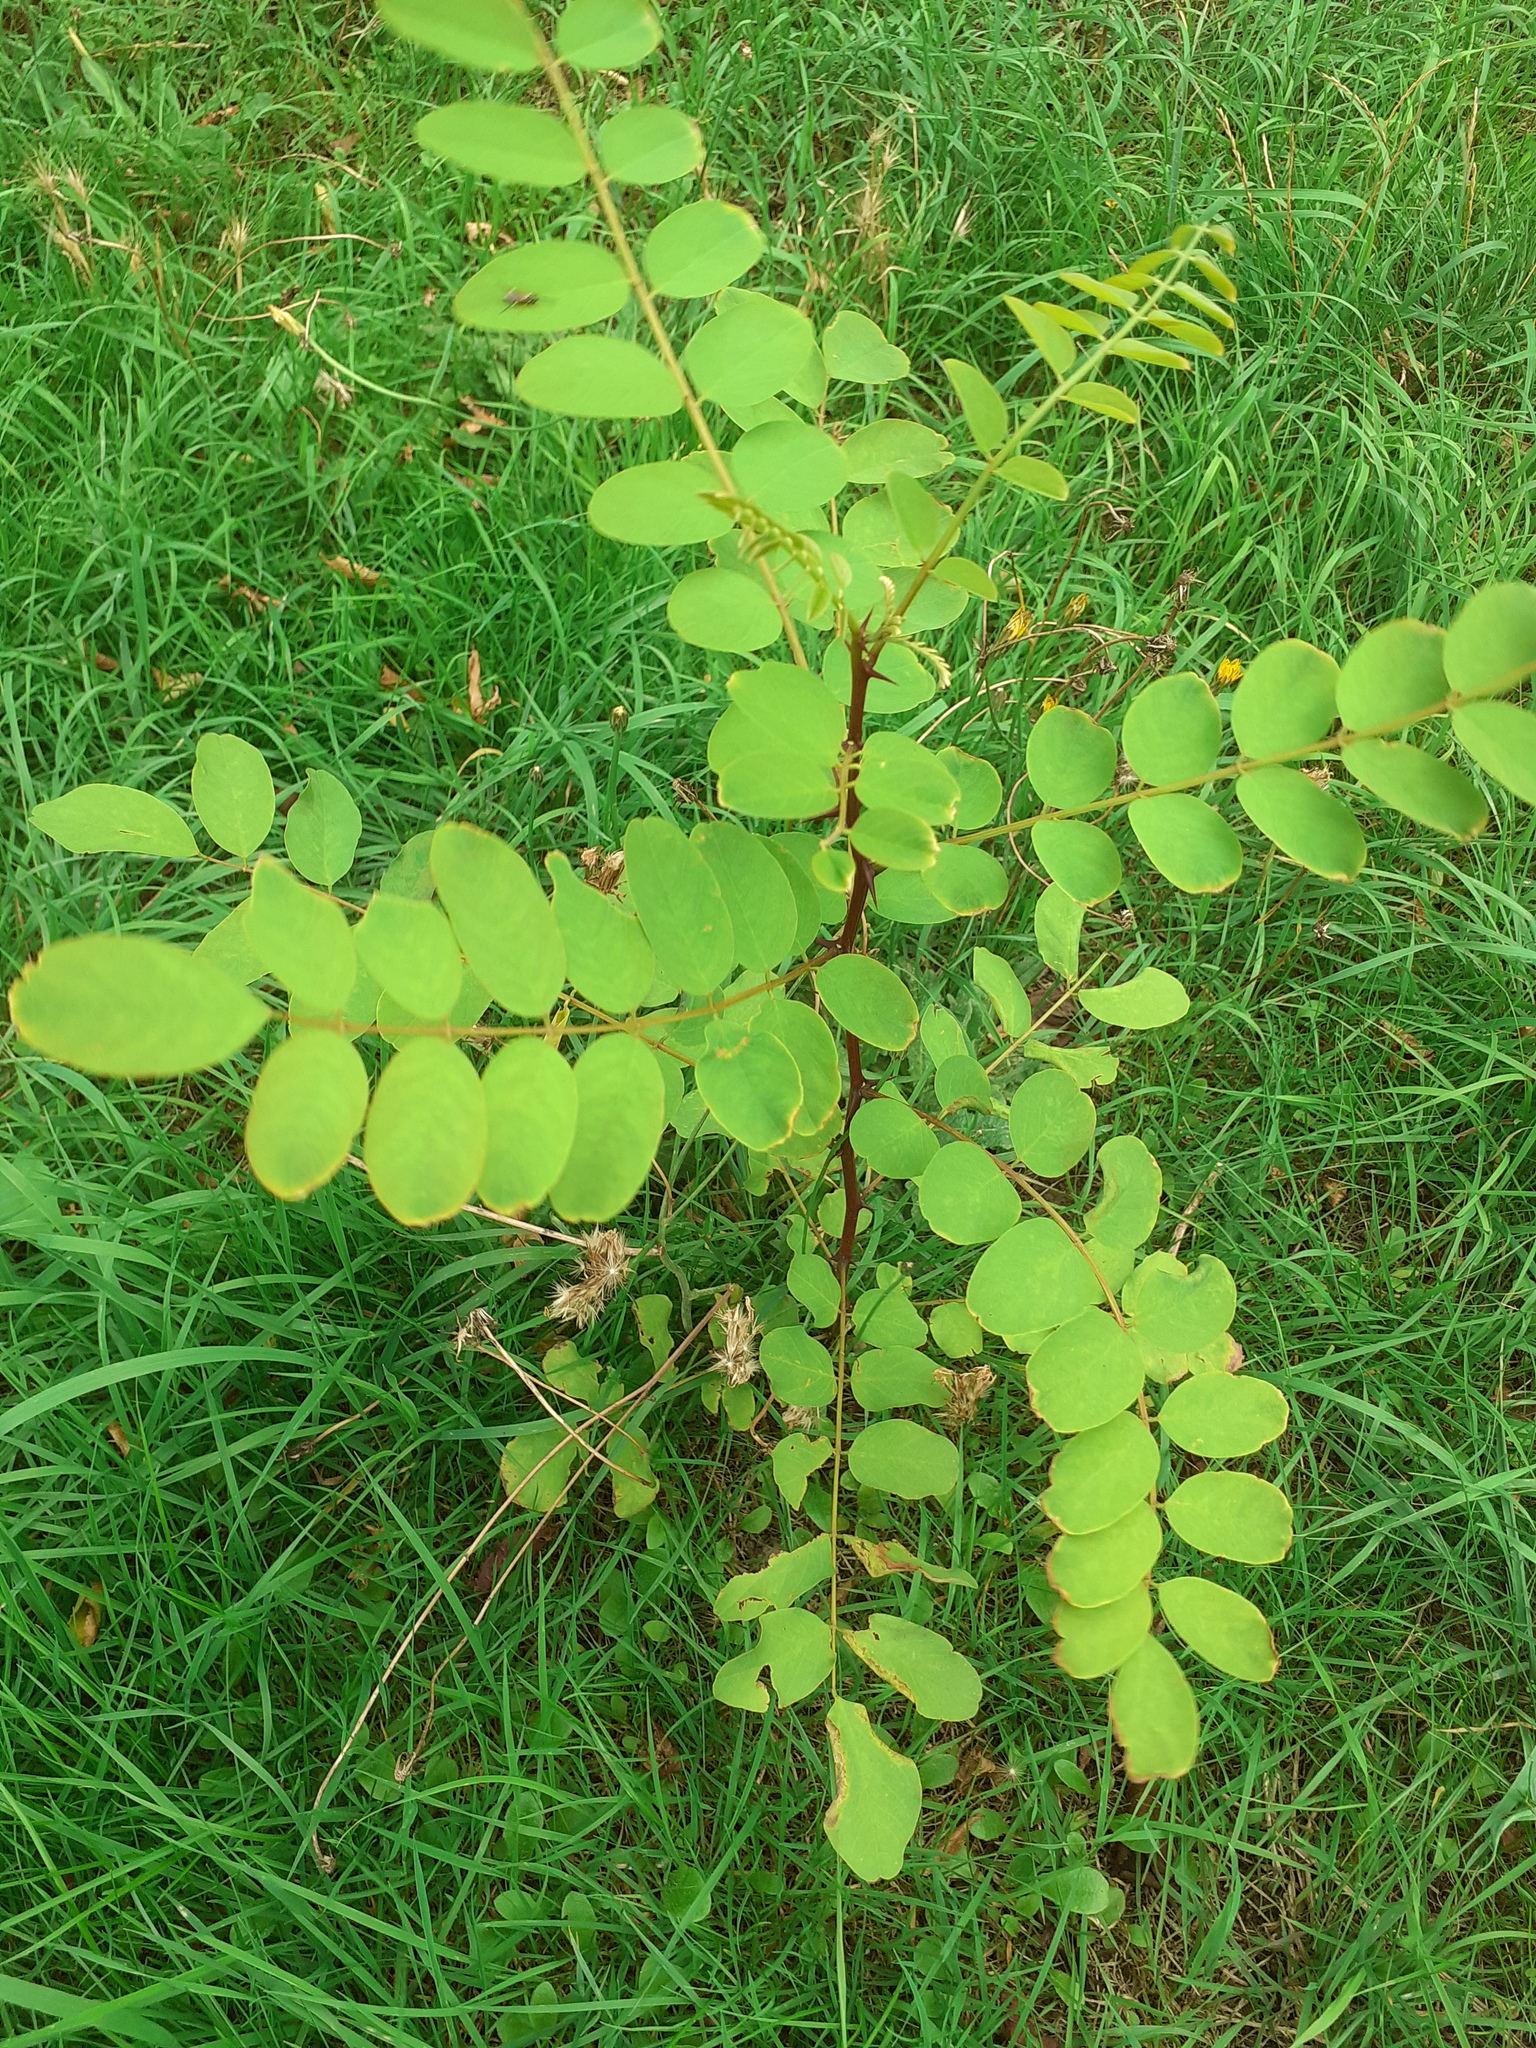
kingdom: Plantae
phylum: Tracheophyta
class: Magnoliopsida
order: Fabales
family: Fabaceae
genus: Robinia
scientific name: Robinia pseudoacacia
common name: Black locust
